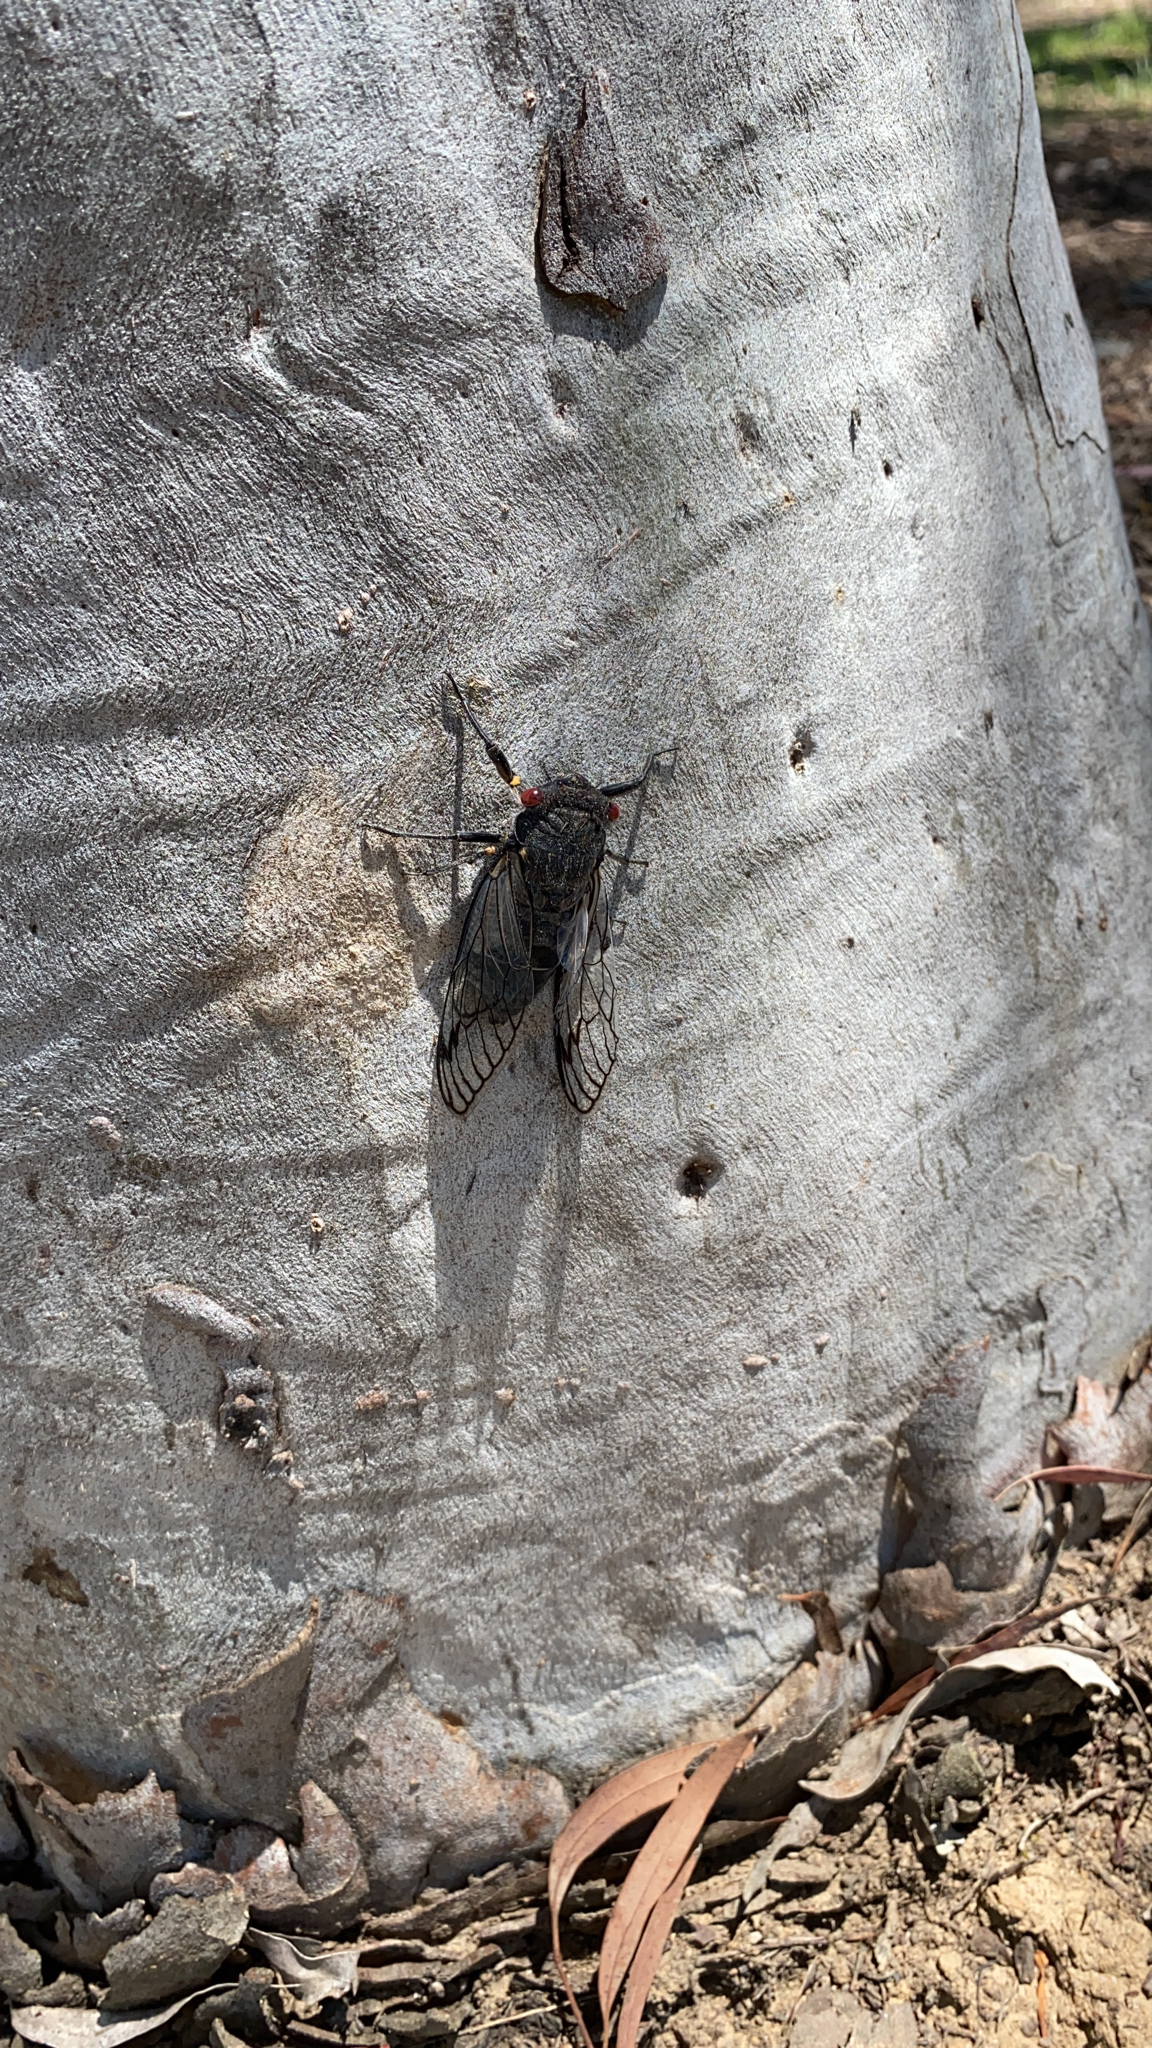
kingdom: Animalia
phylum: Arthropoda
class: Insecta
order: Hemiptera
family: Cicadidae
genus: Psaltoda
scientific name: Psaltoda moerens
